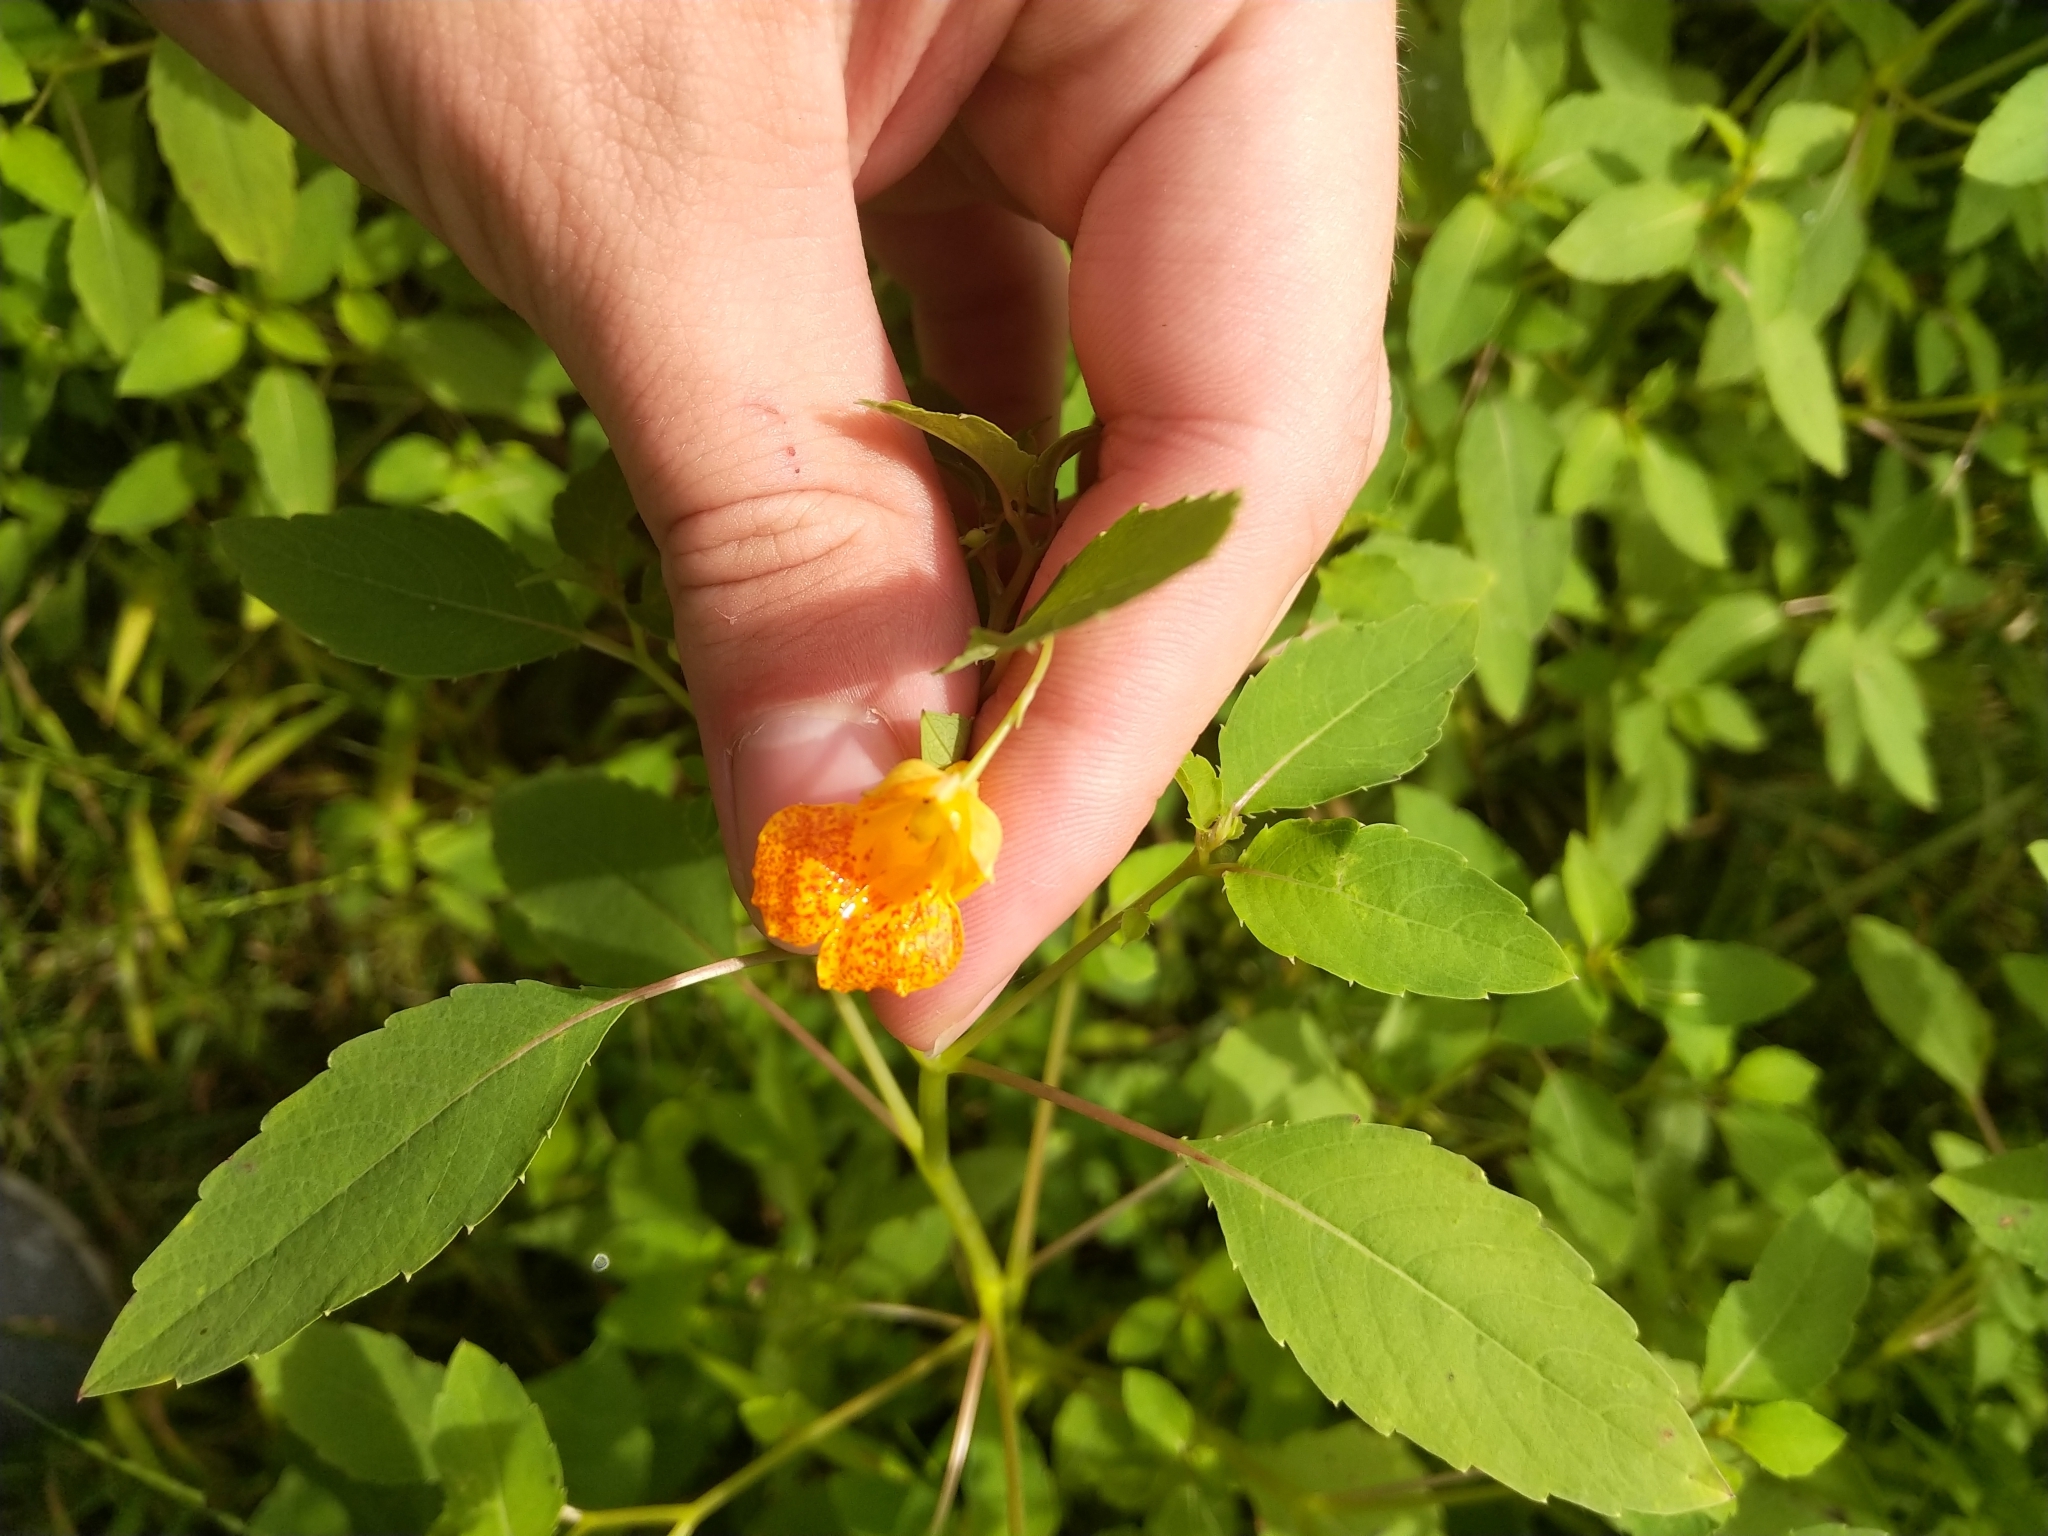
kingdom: Plantae
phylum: Tracheophyta
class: Magnoliopsida
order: Ericales
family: Balsaminaceae
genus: Impatiens
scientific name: Impatiens capensis
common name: Orange balsam
